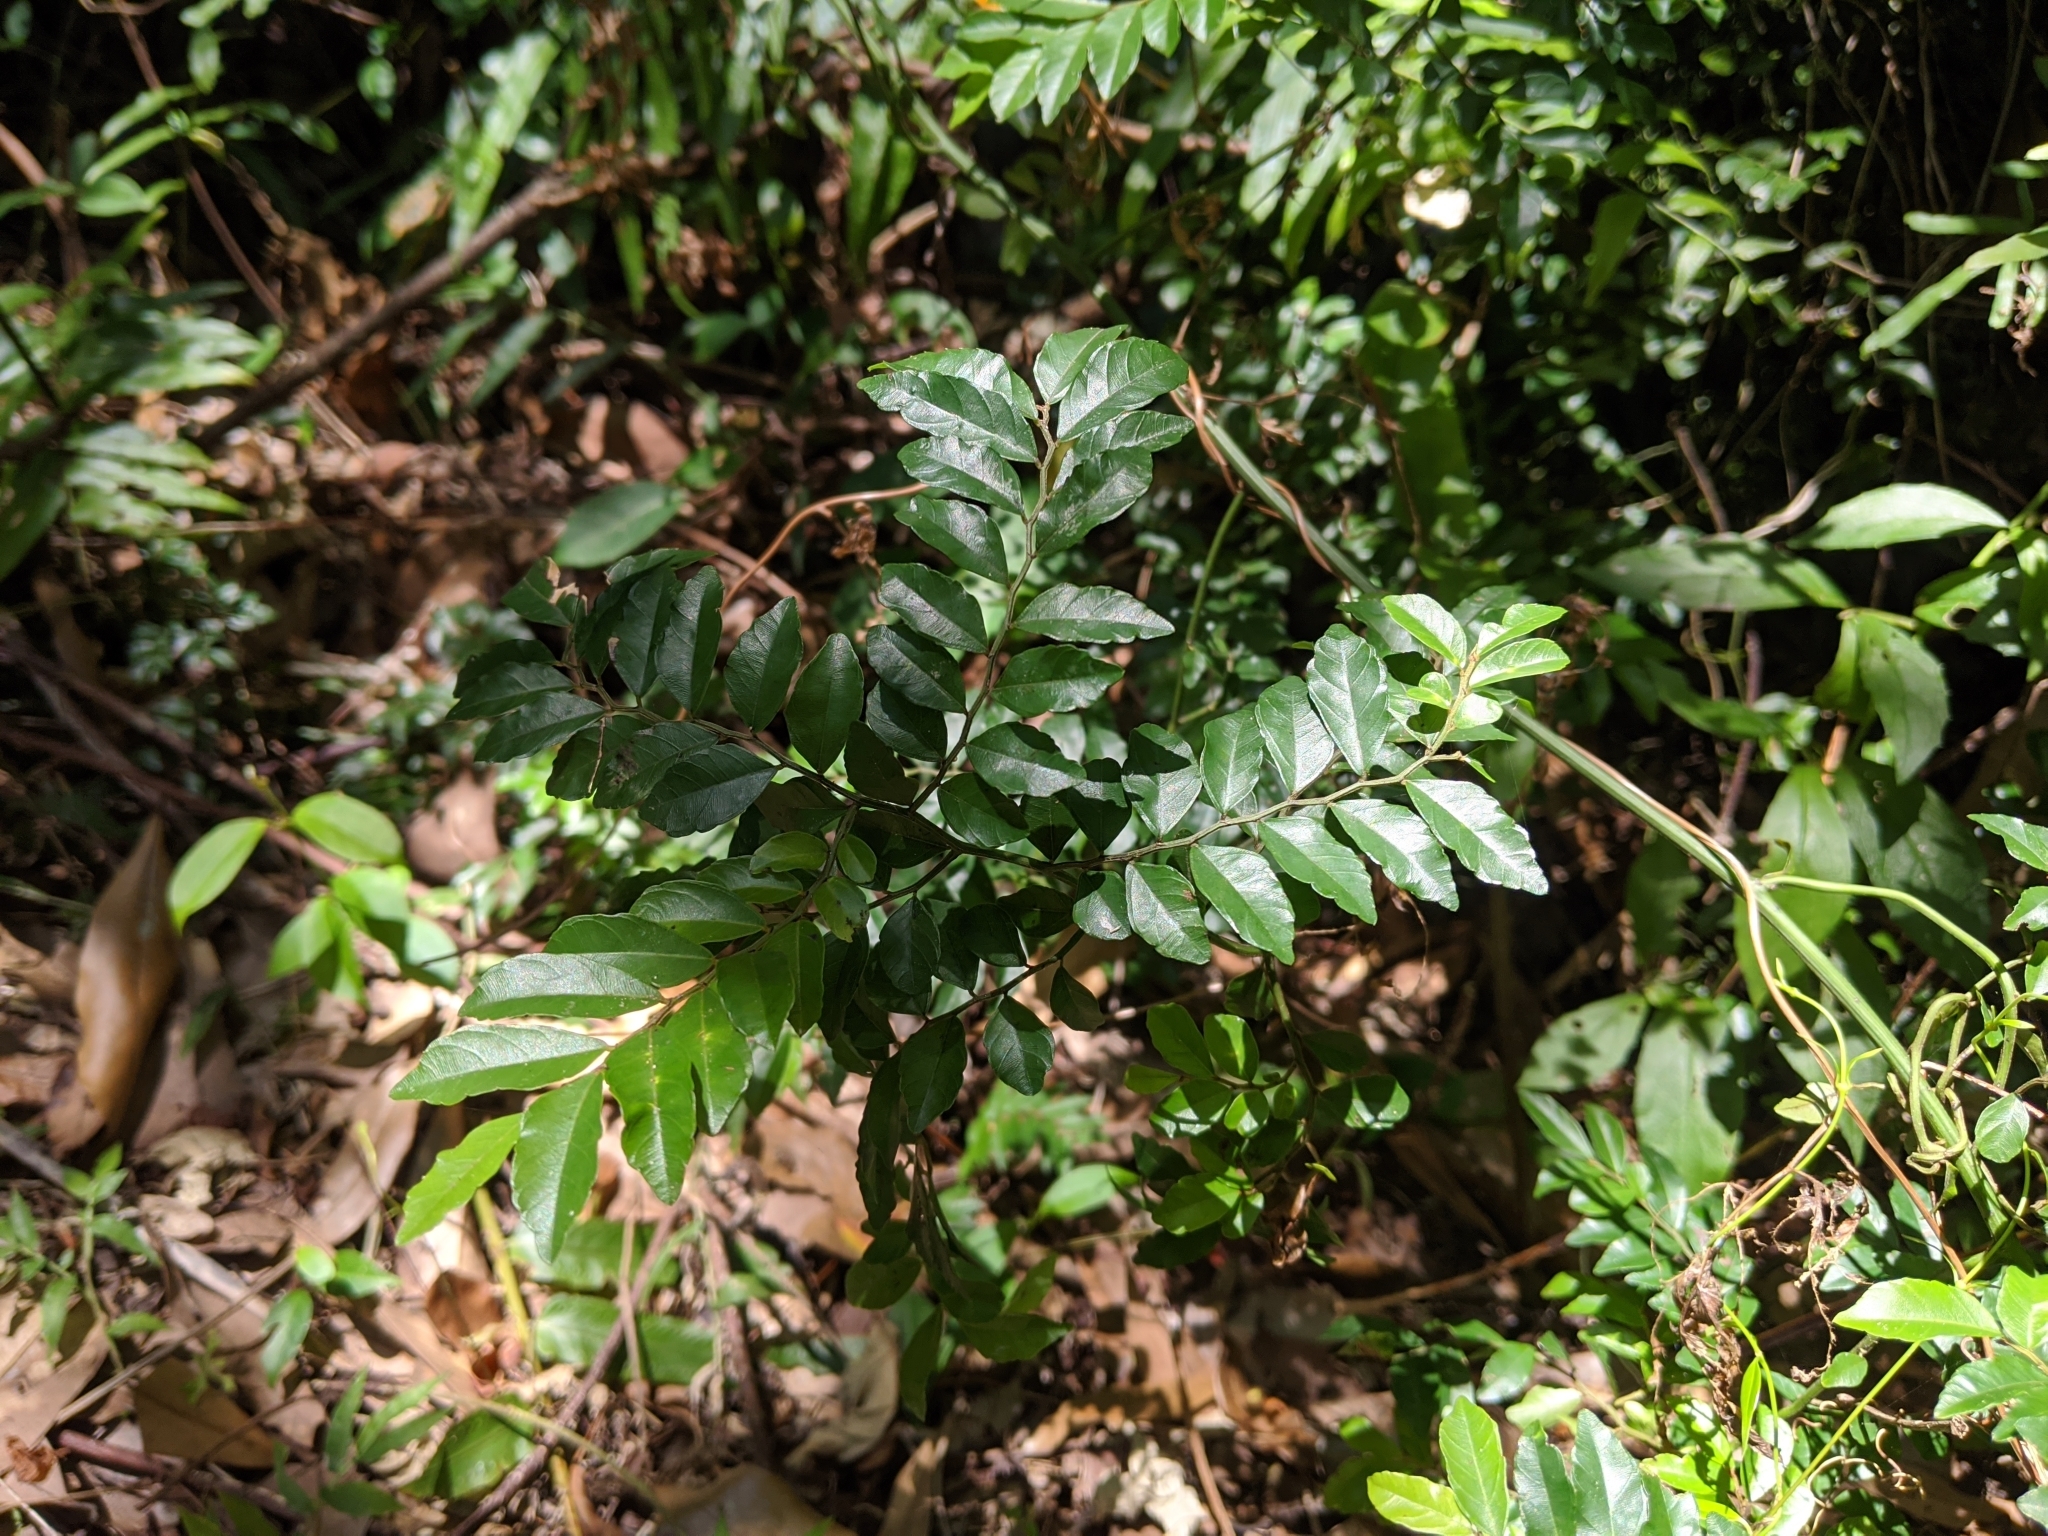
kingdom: Plantae
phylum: Tracheophyta
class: Magnoliopsida
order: Rosales
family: Rhamnaceae
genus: Ventilago
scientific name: Ventilago elegans
